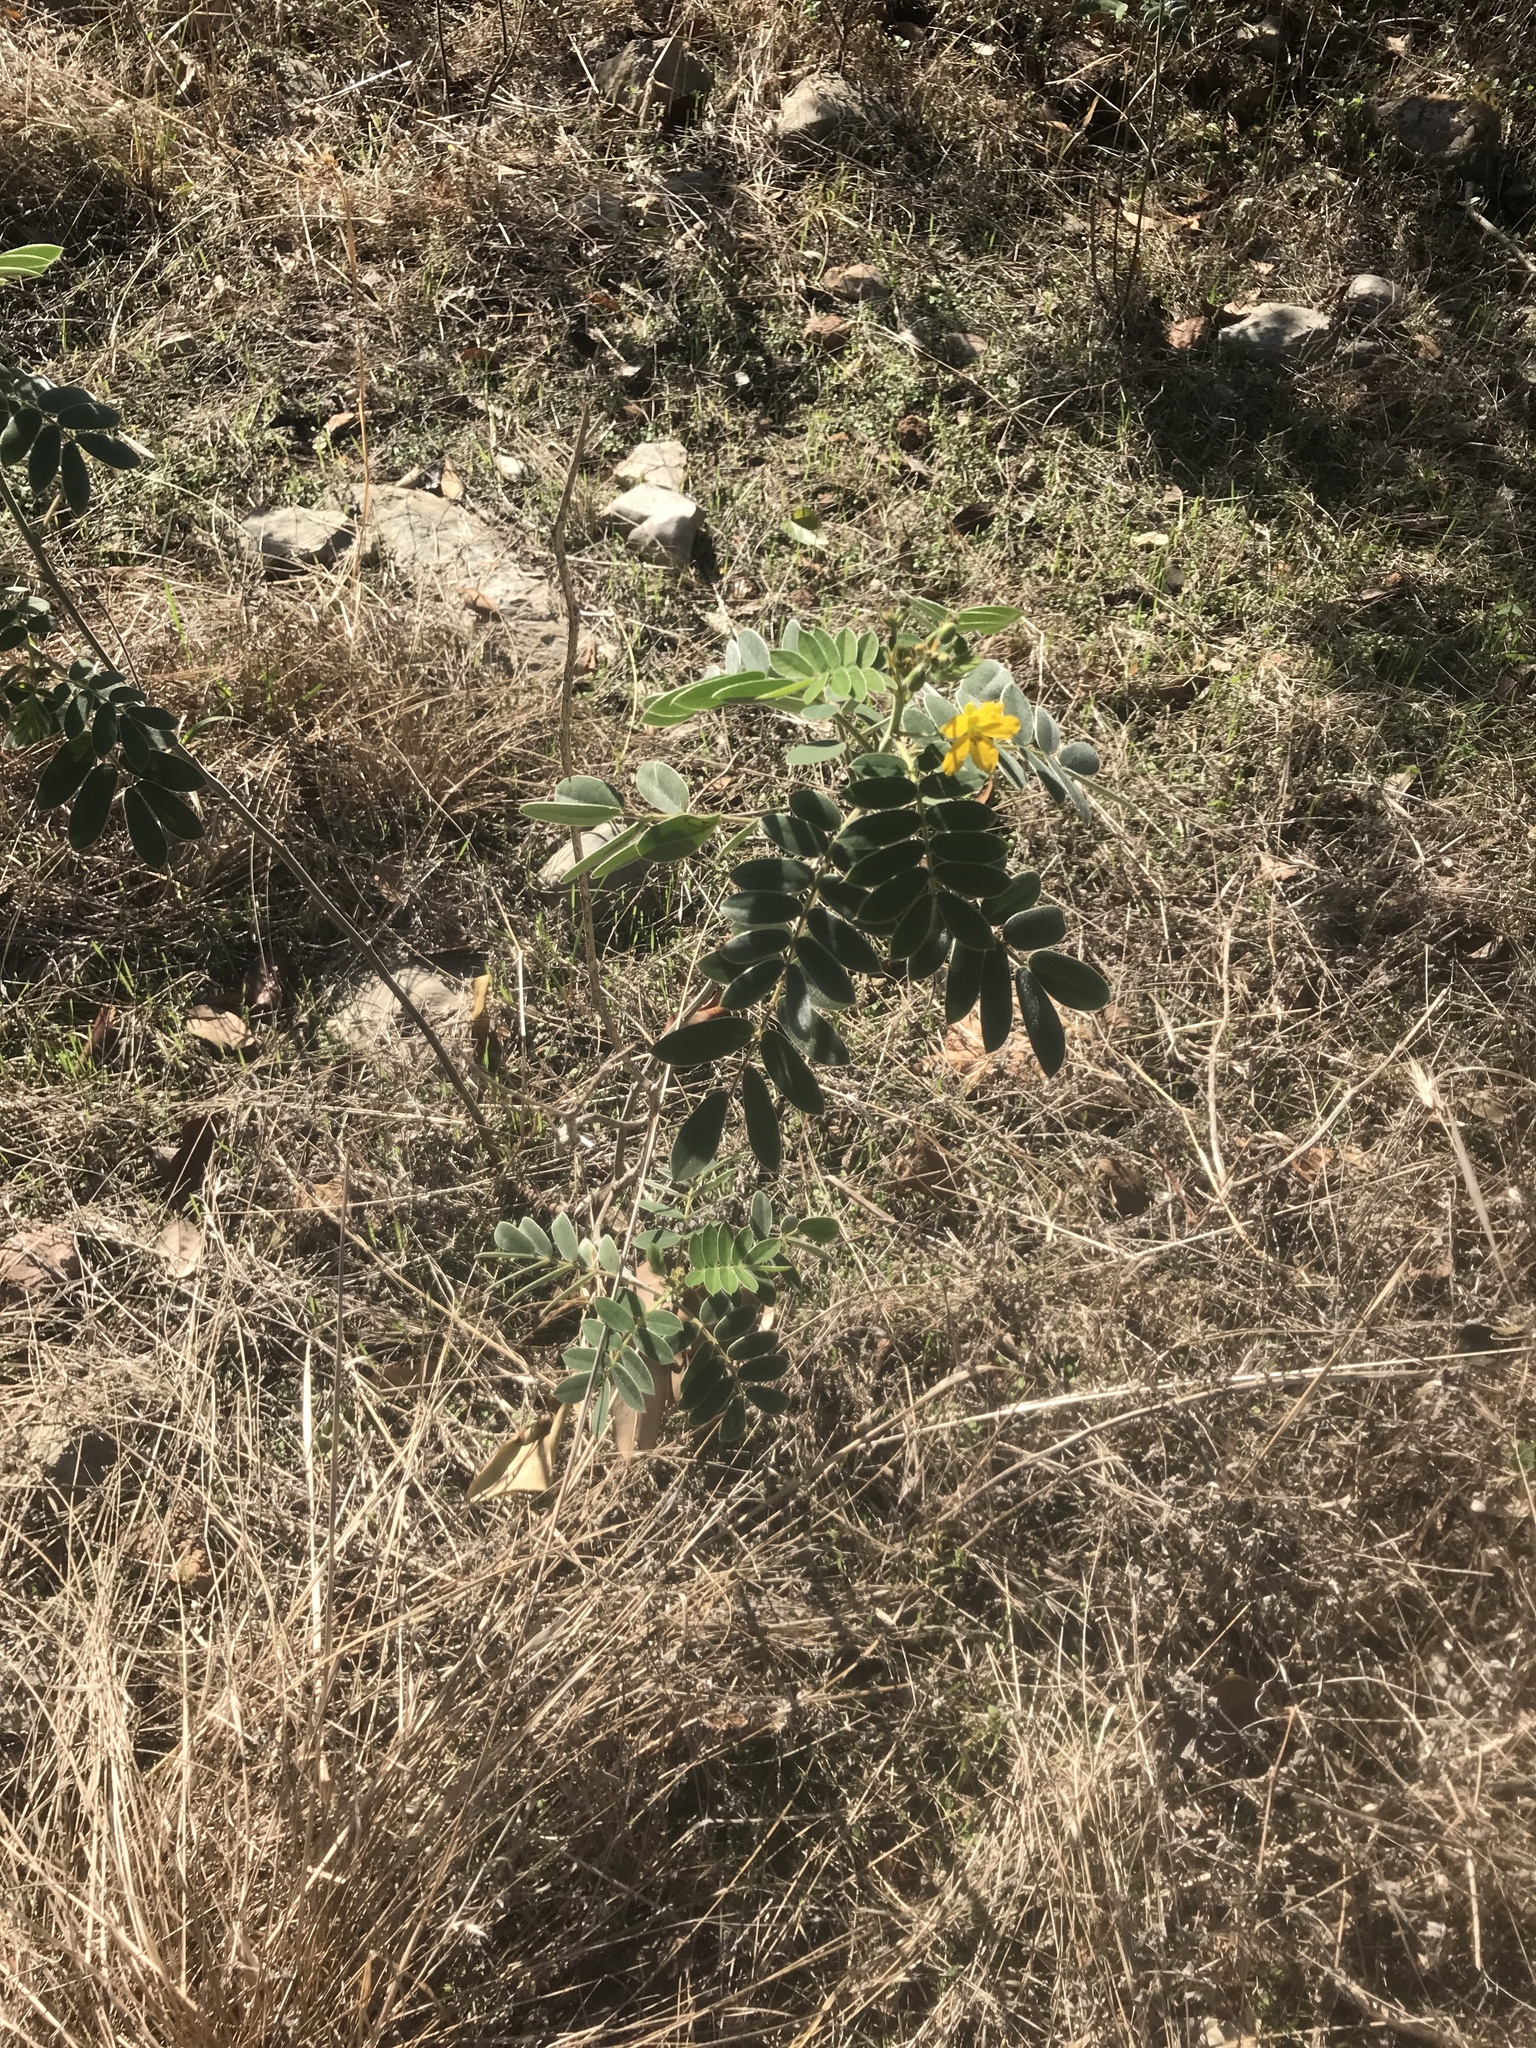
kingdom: Plantae
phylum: Tracheophyta
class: Magnoliopsida
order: Fabales
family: Fabaceae
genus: Senna
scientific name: Senna lindheimeriana
